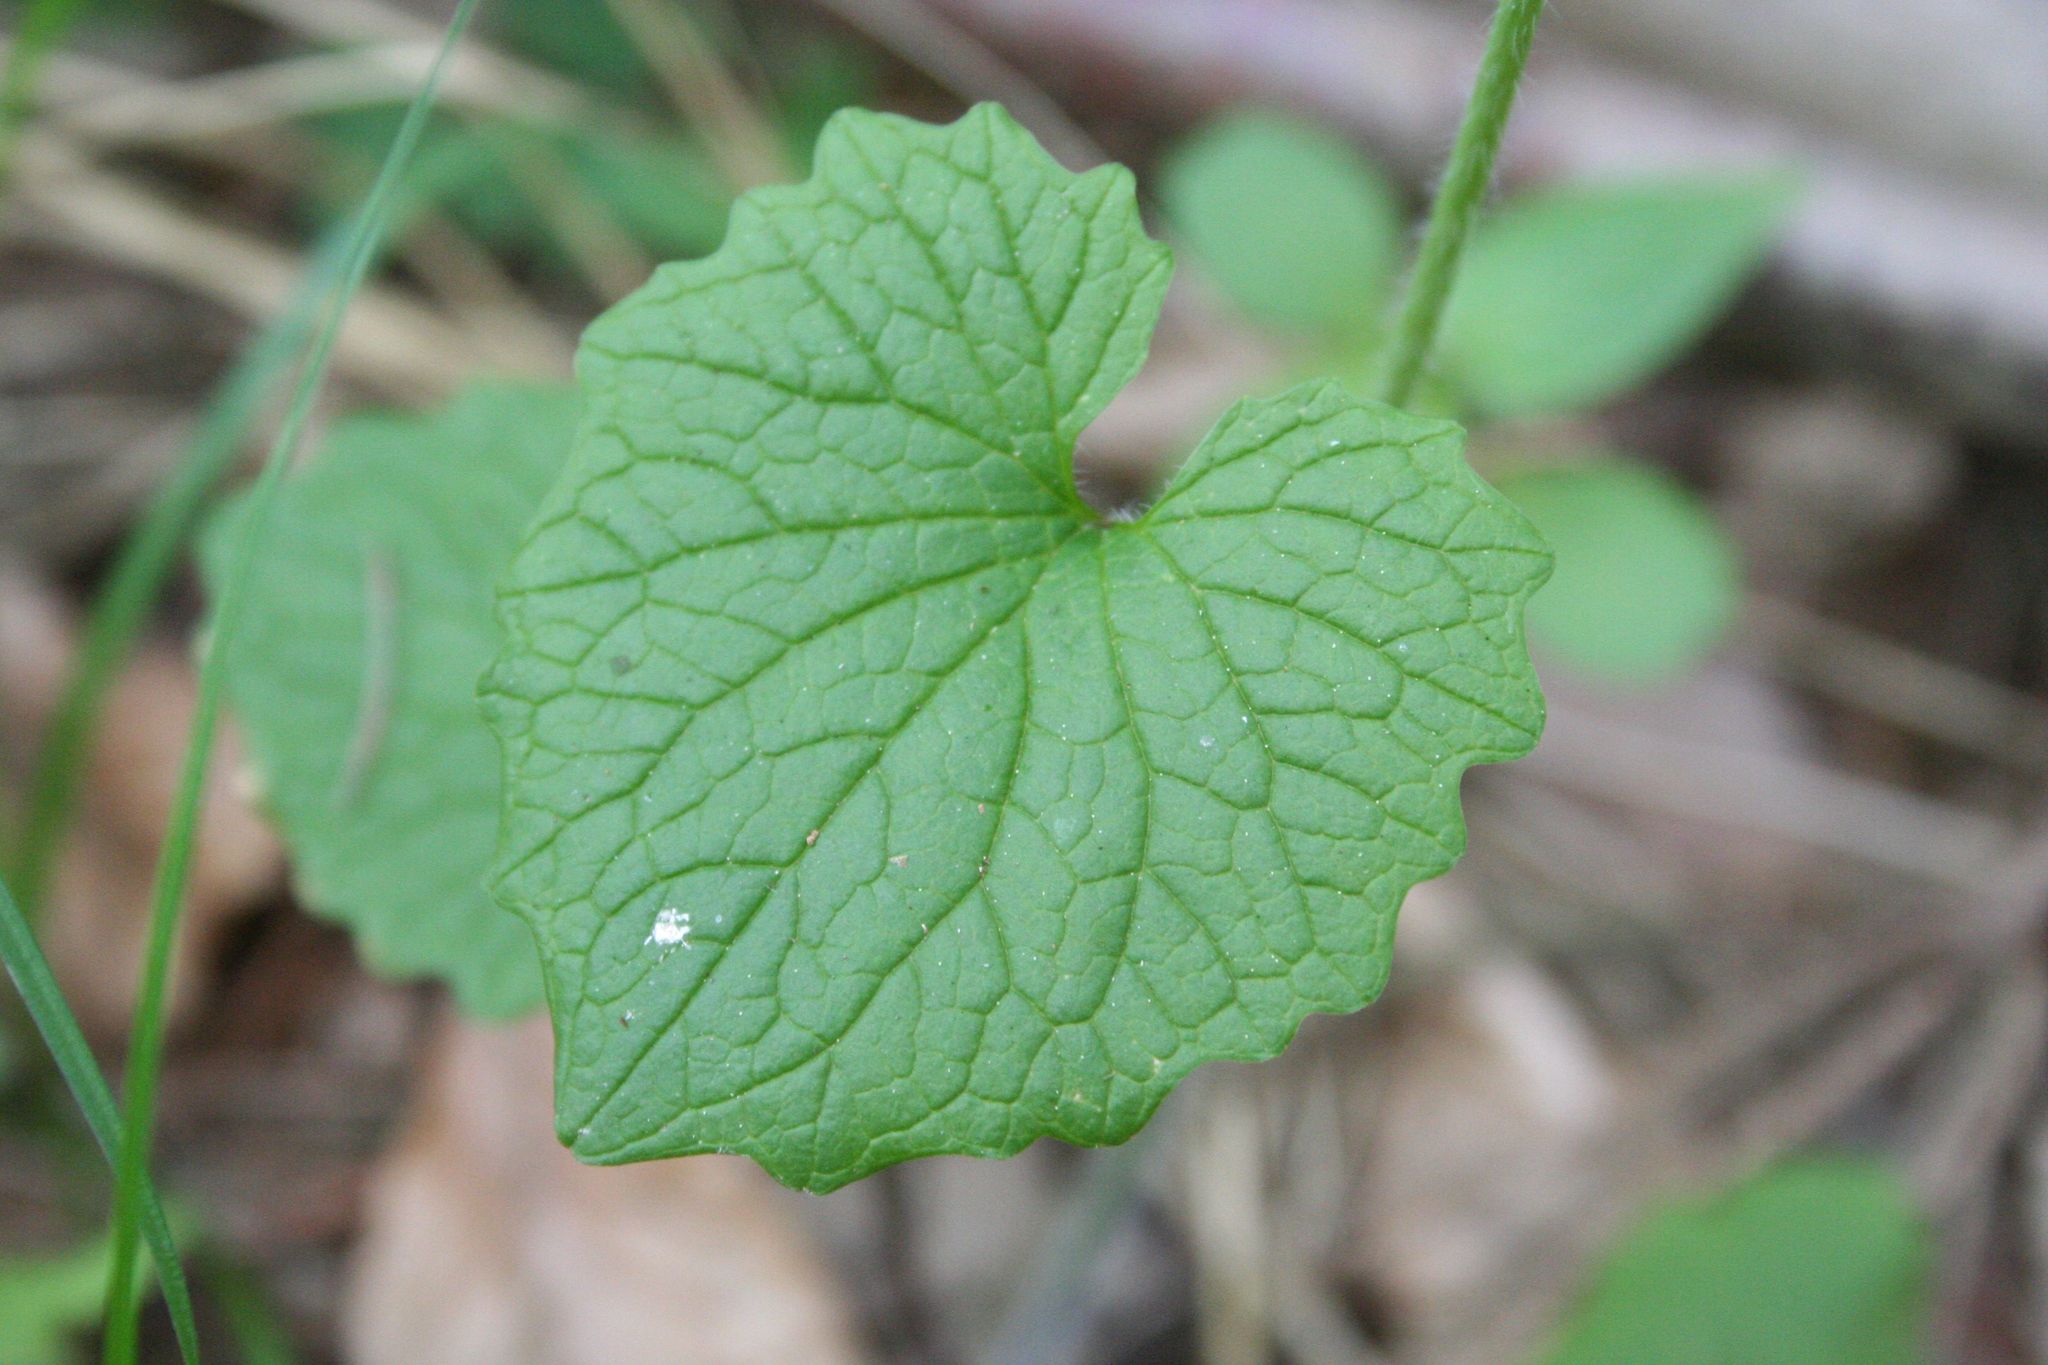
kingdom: Plantae
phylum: Tracheophyta
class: Magnoliopsida
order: Brassicales
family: Brassicaceae
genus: Alliaria
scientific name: Alliaria petiolata
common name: Garlic mustard
